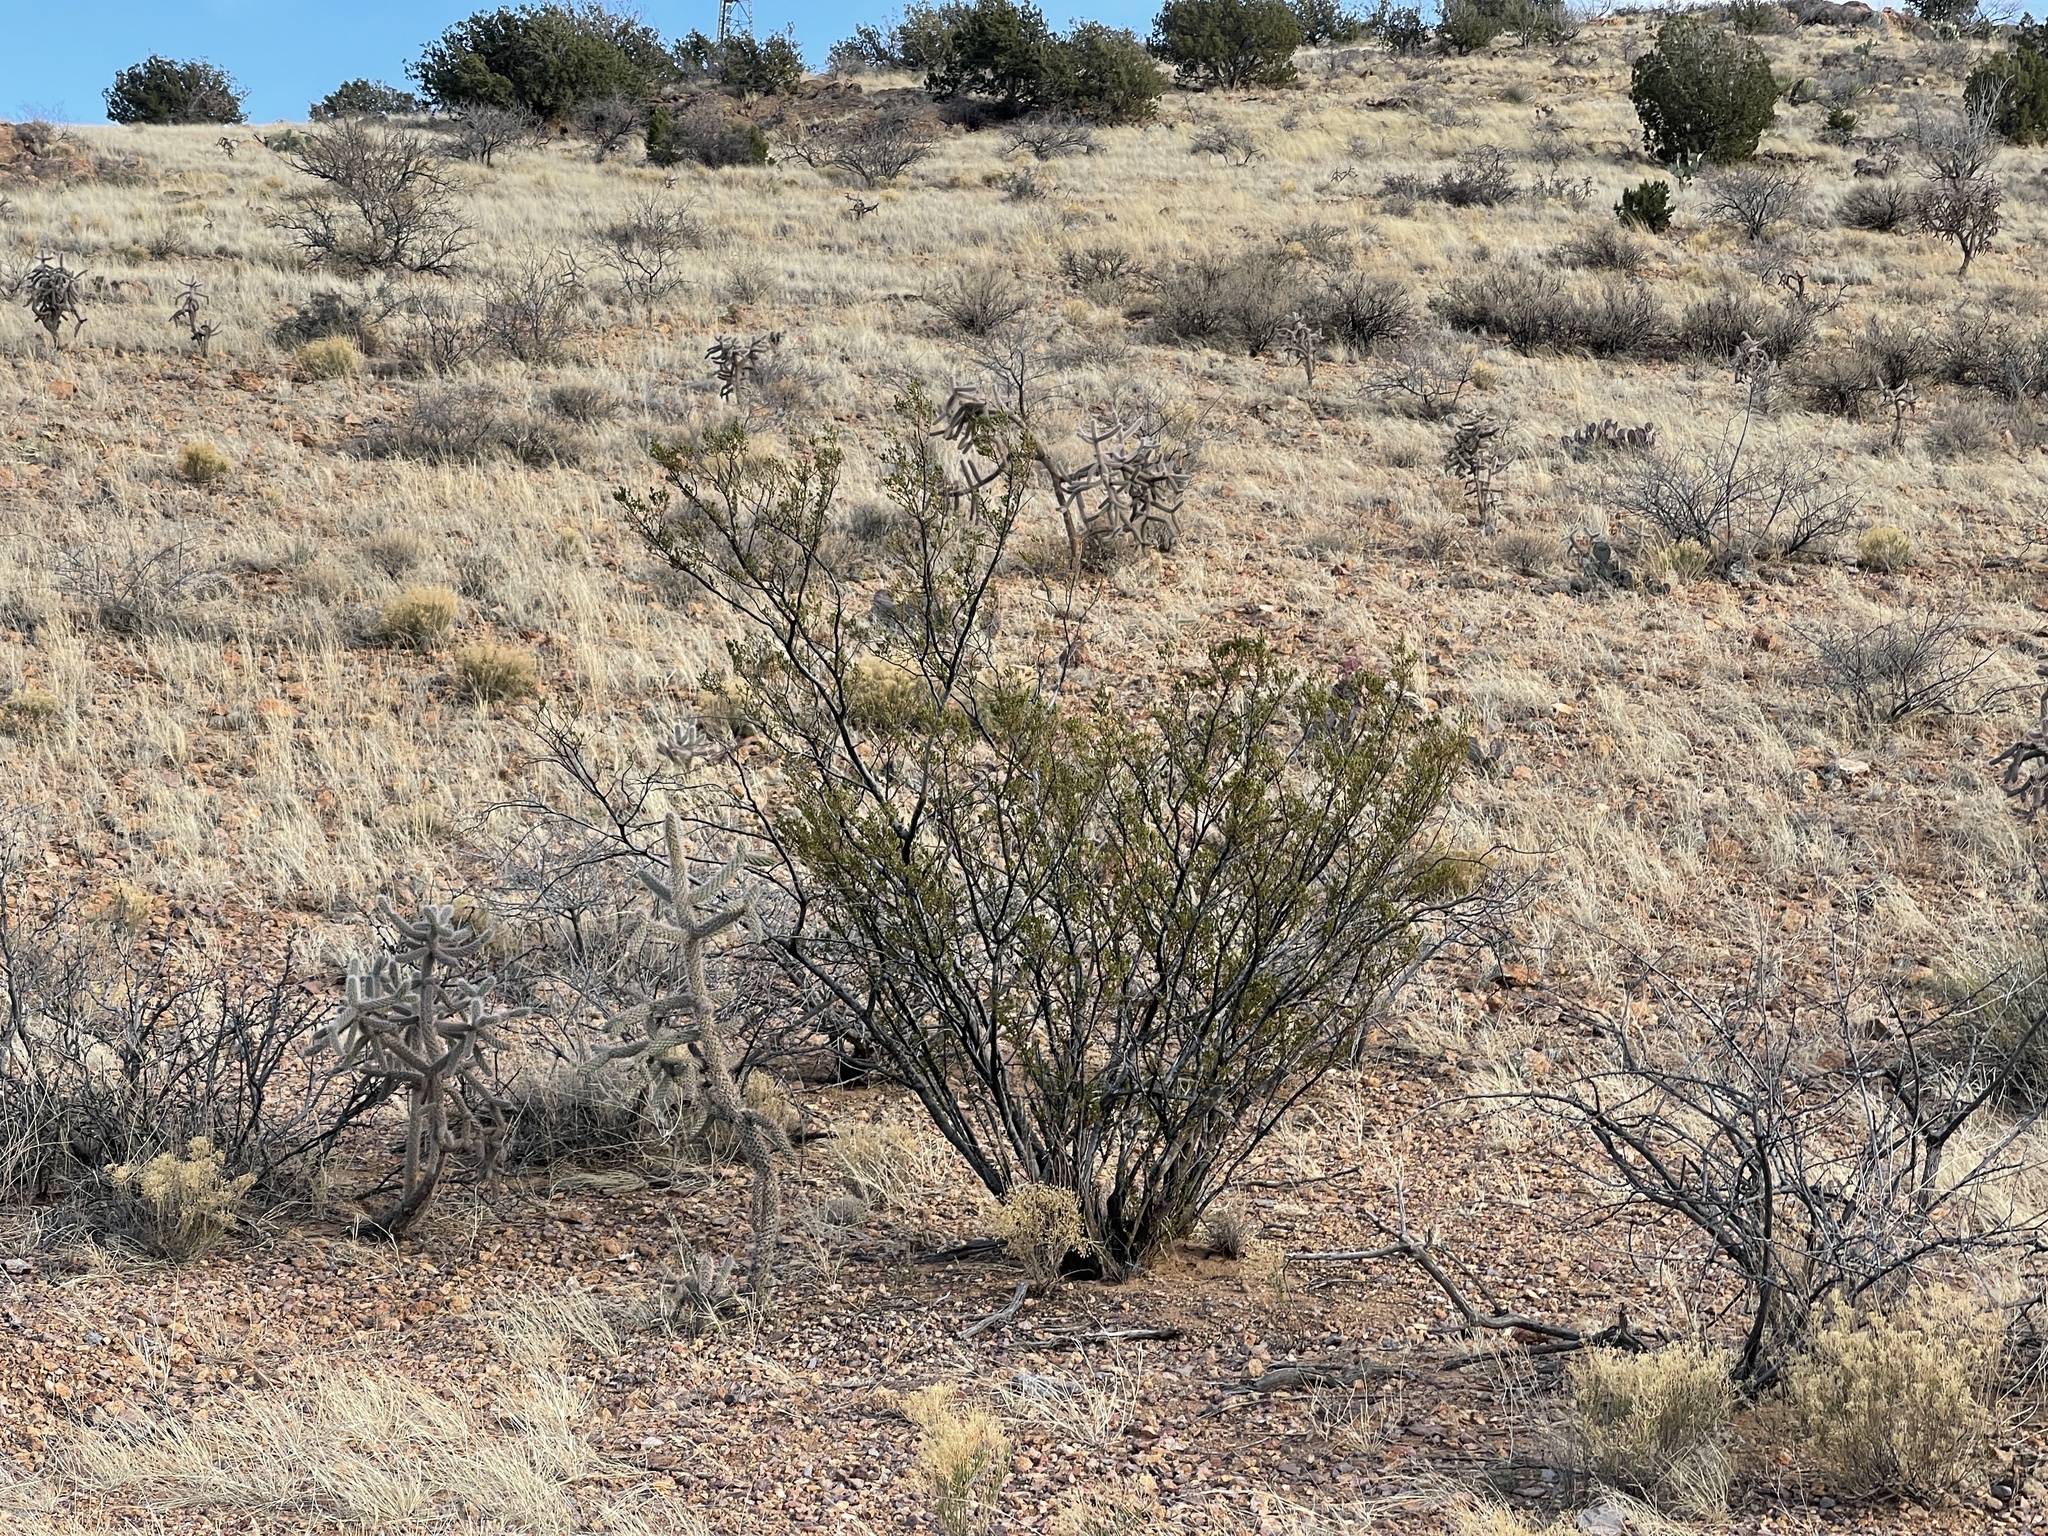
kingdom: Plantae
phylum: Tracheophyta
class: Magnoliopsida
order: Zygophyllales
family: Zygophyllaceae
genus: Larrea
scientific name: Larrea tridentata
